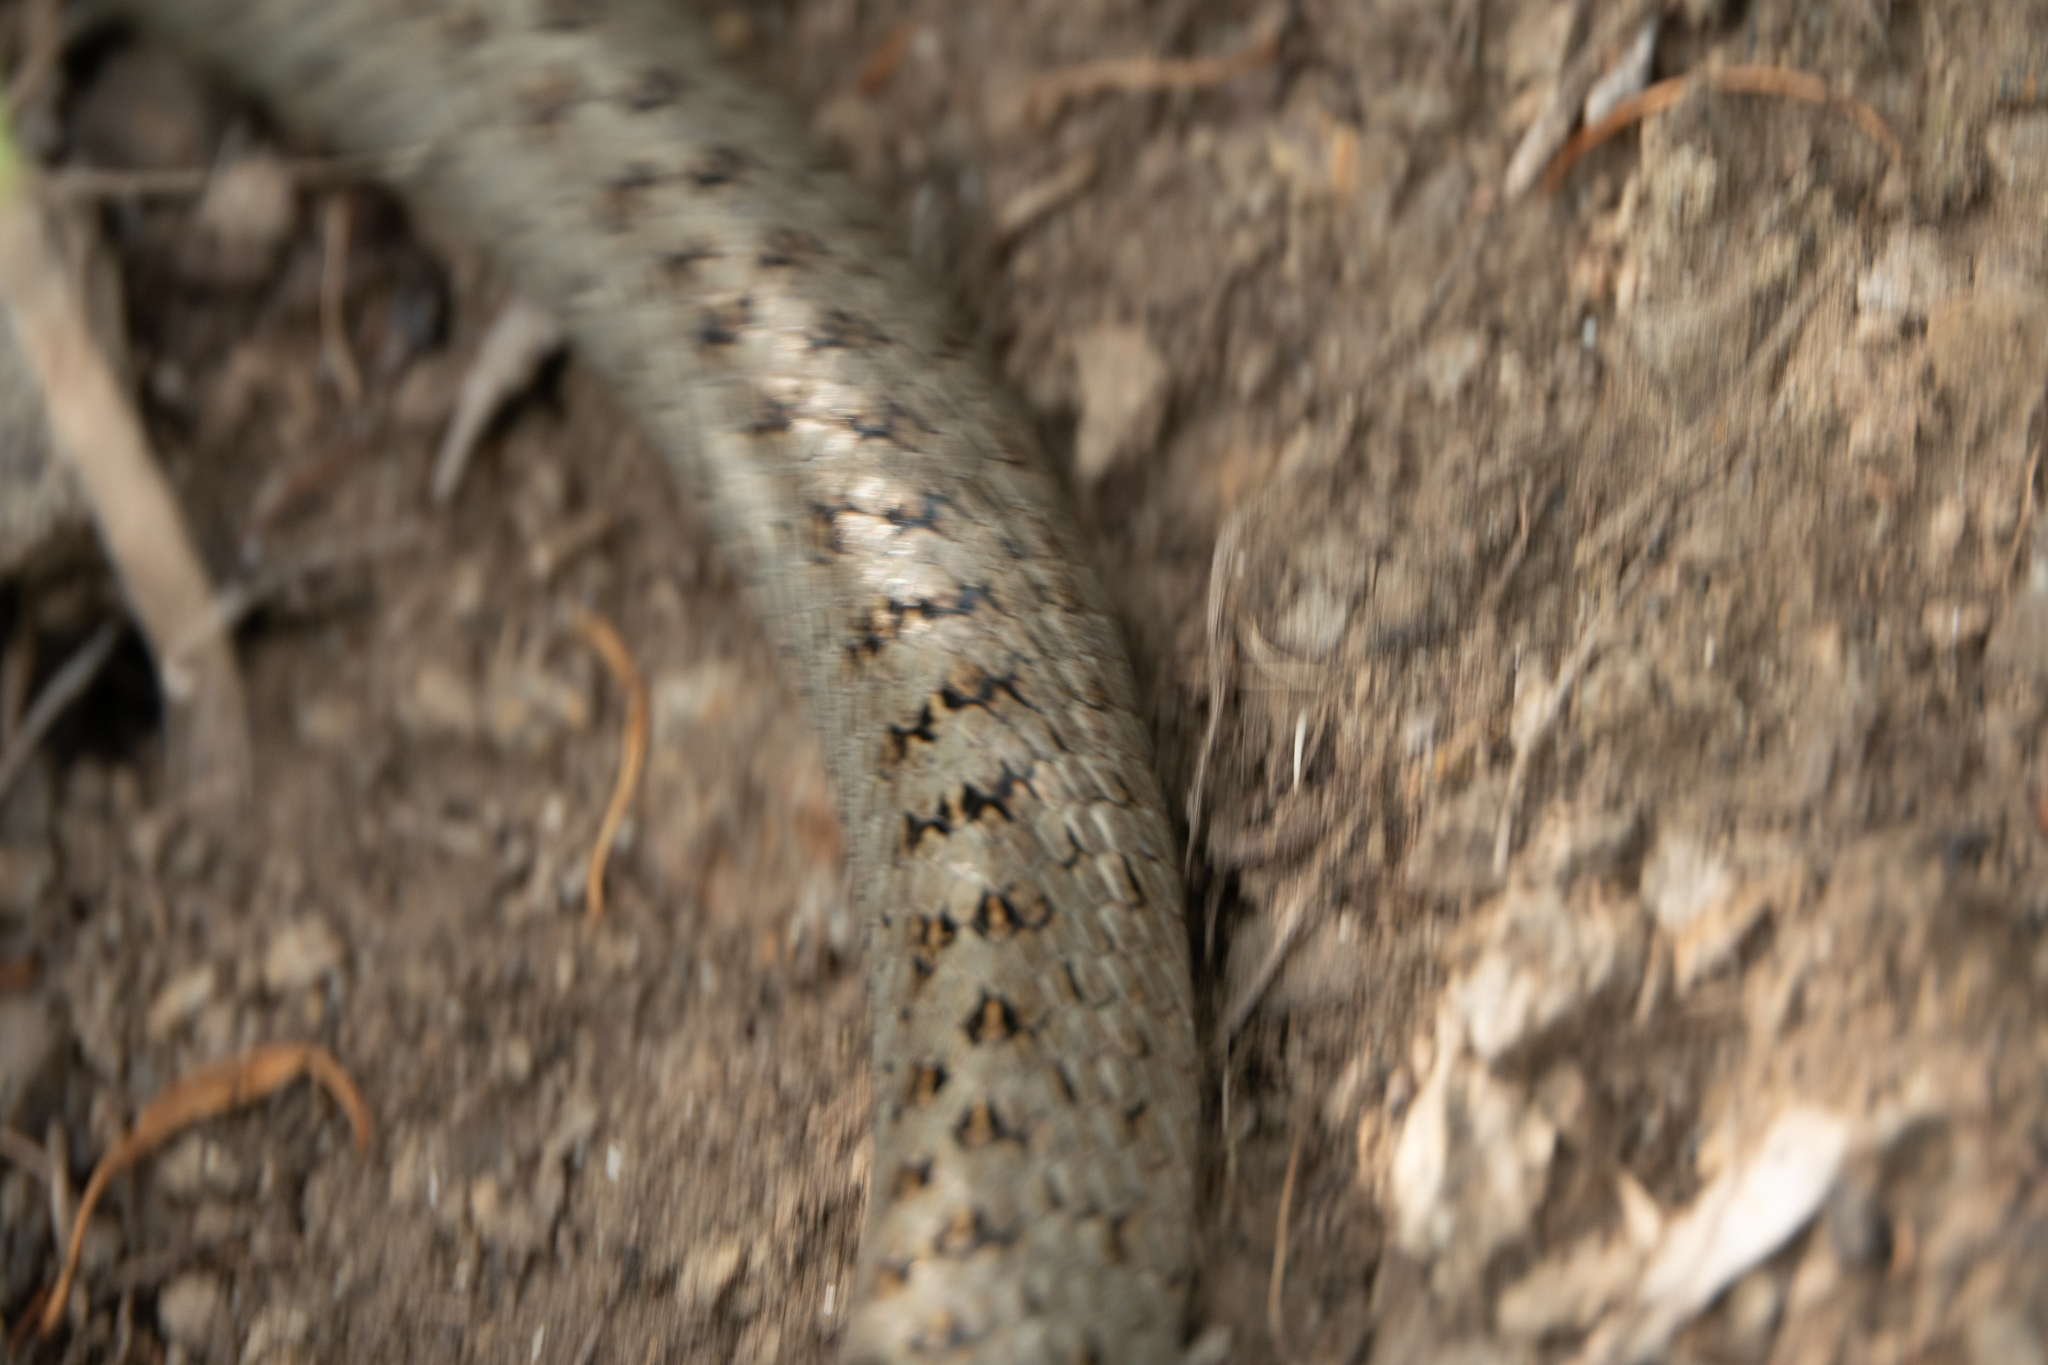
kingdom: Animalia
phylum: Chordata
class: Squamata
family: Colubridae
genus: Coronella
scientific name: Coronella austriaca
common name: Smooth snake
